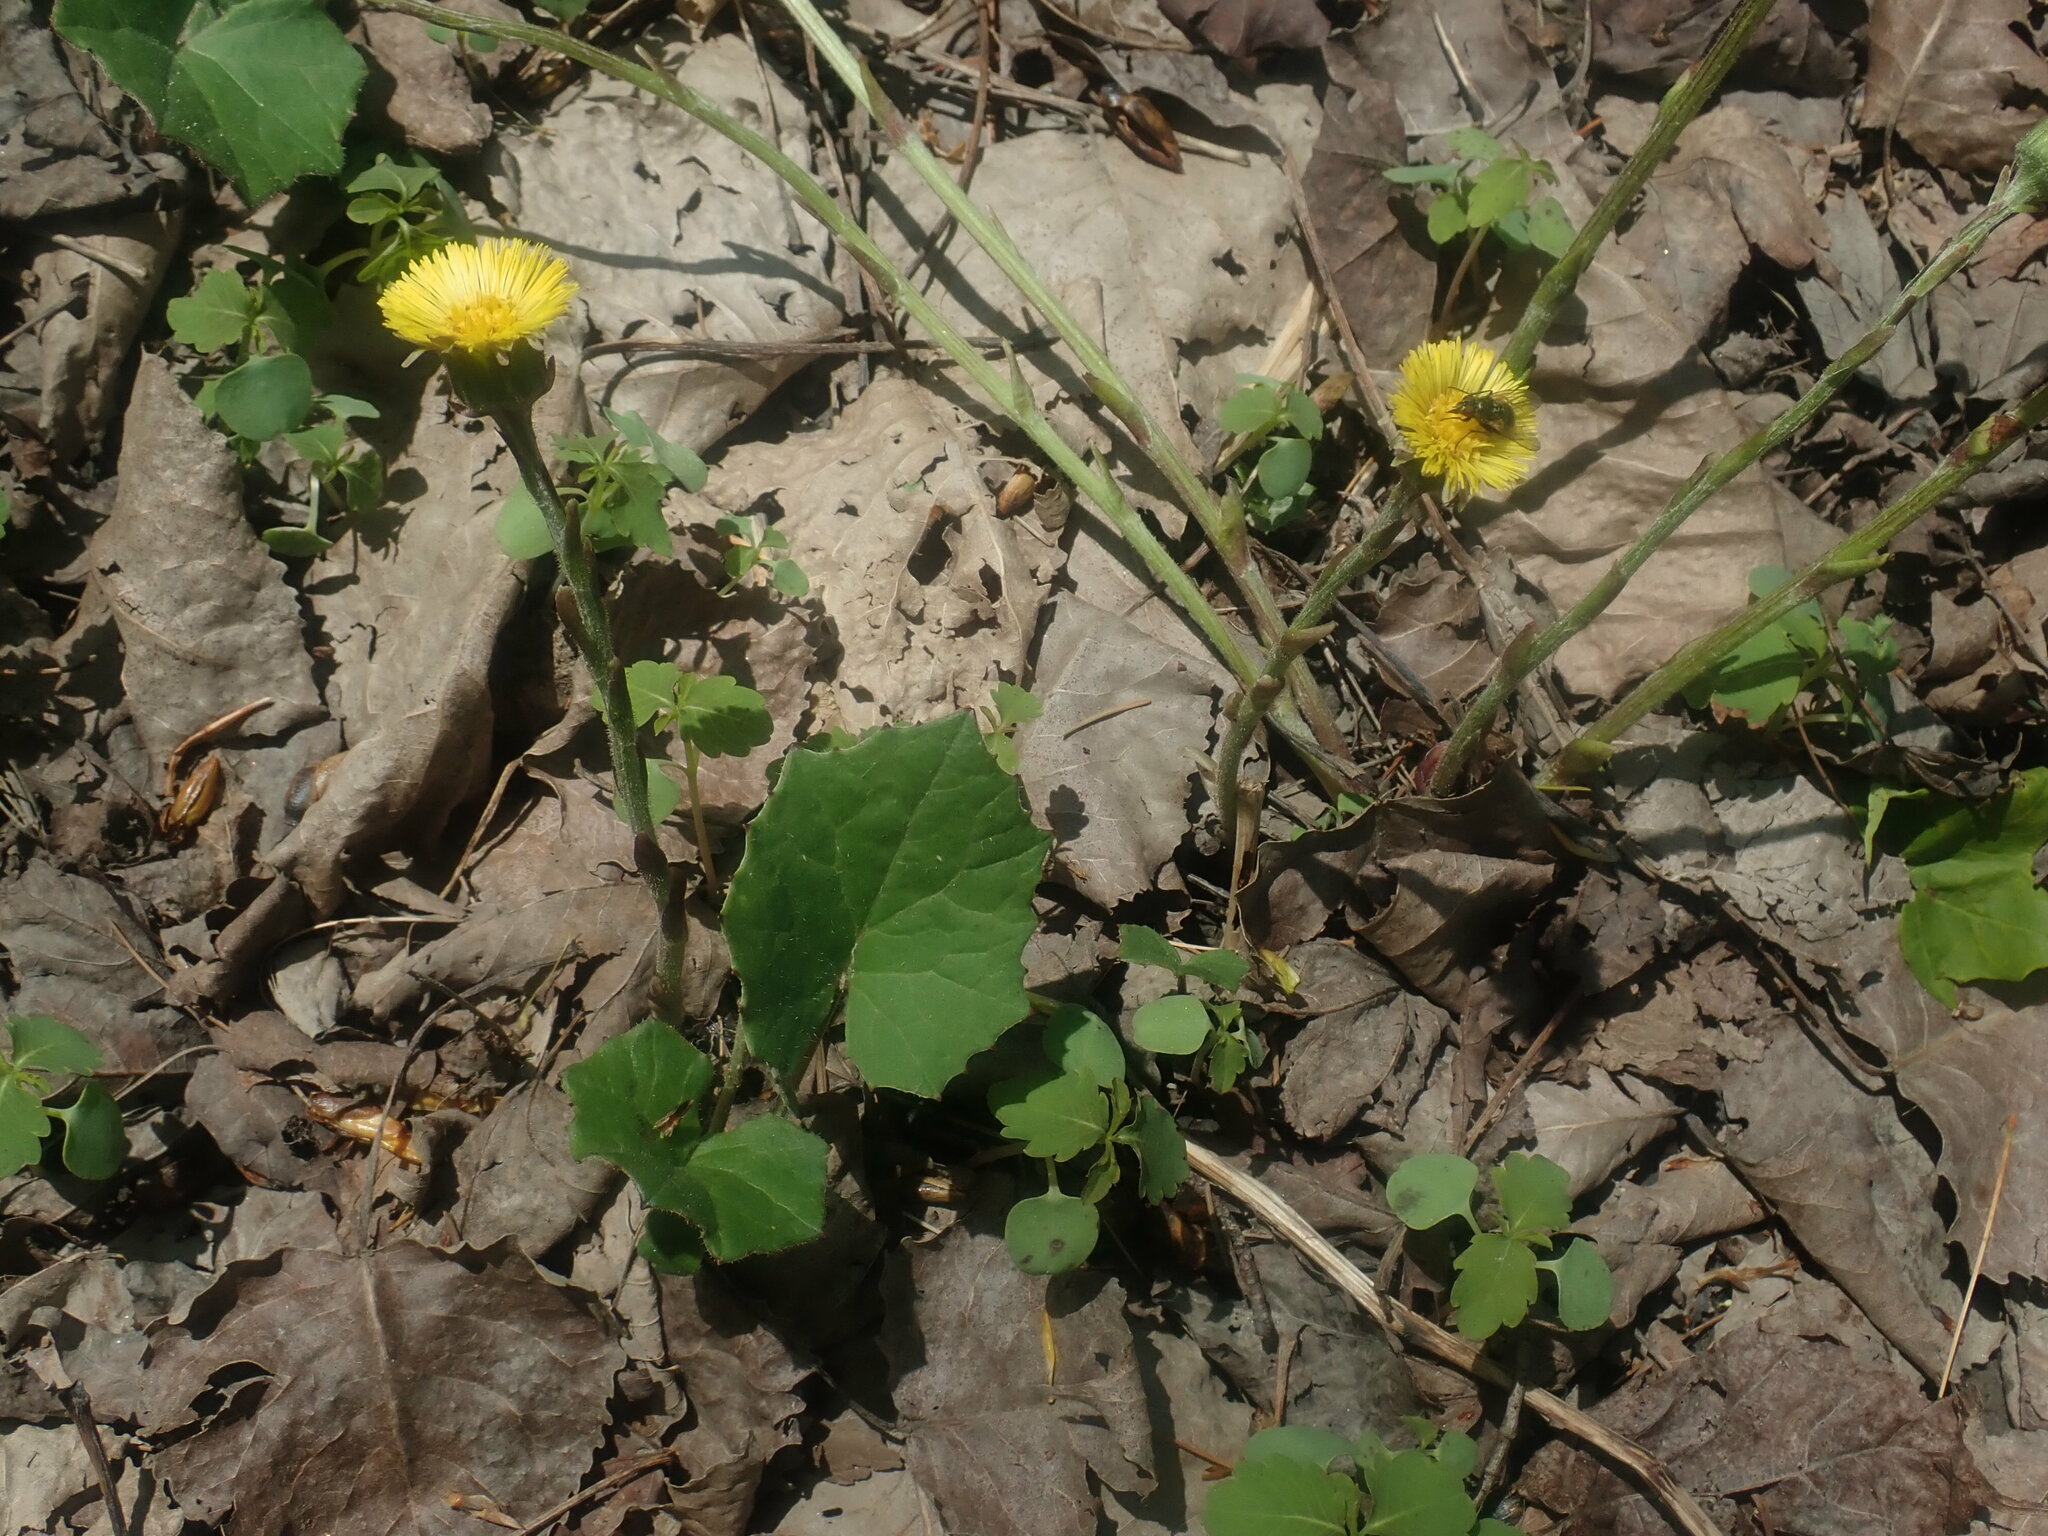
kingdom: Plantae
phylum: Tracheophyta
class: Magnoliopsida
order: Asterales
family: Asteraceae
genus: Tussilago
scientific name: Tussilago farfara
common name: Coltsfoot
